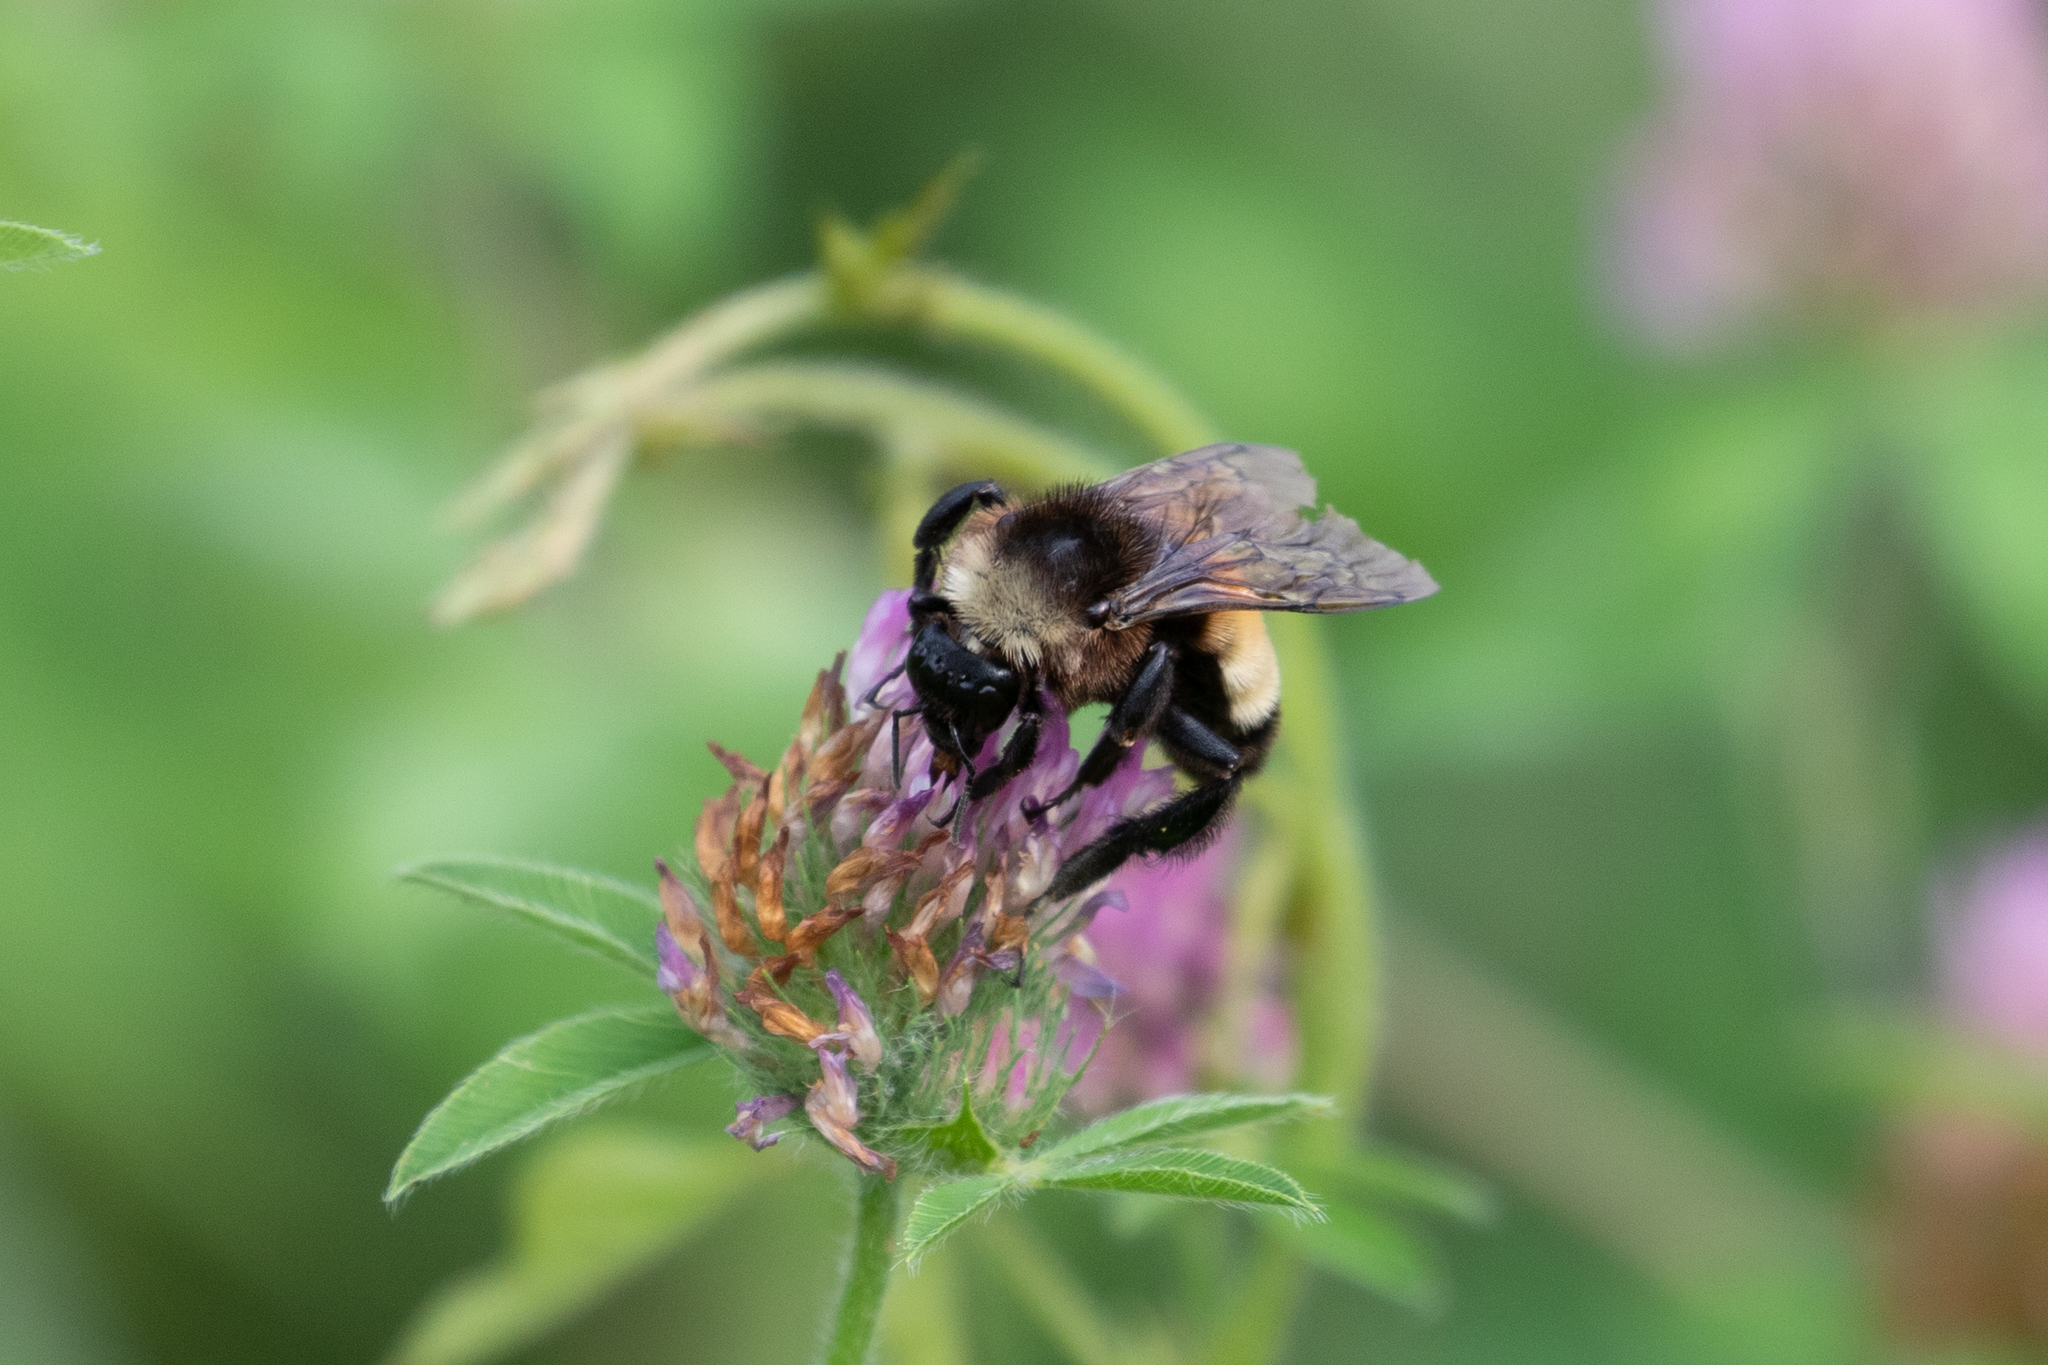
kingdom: Animalia
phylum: Arthropoda
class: Insecta
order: Hymenoptera
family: Apidae
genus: Bombus
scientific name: Bombus pensylvanicus
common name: Bumble bee
